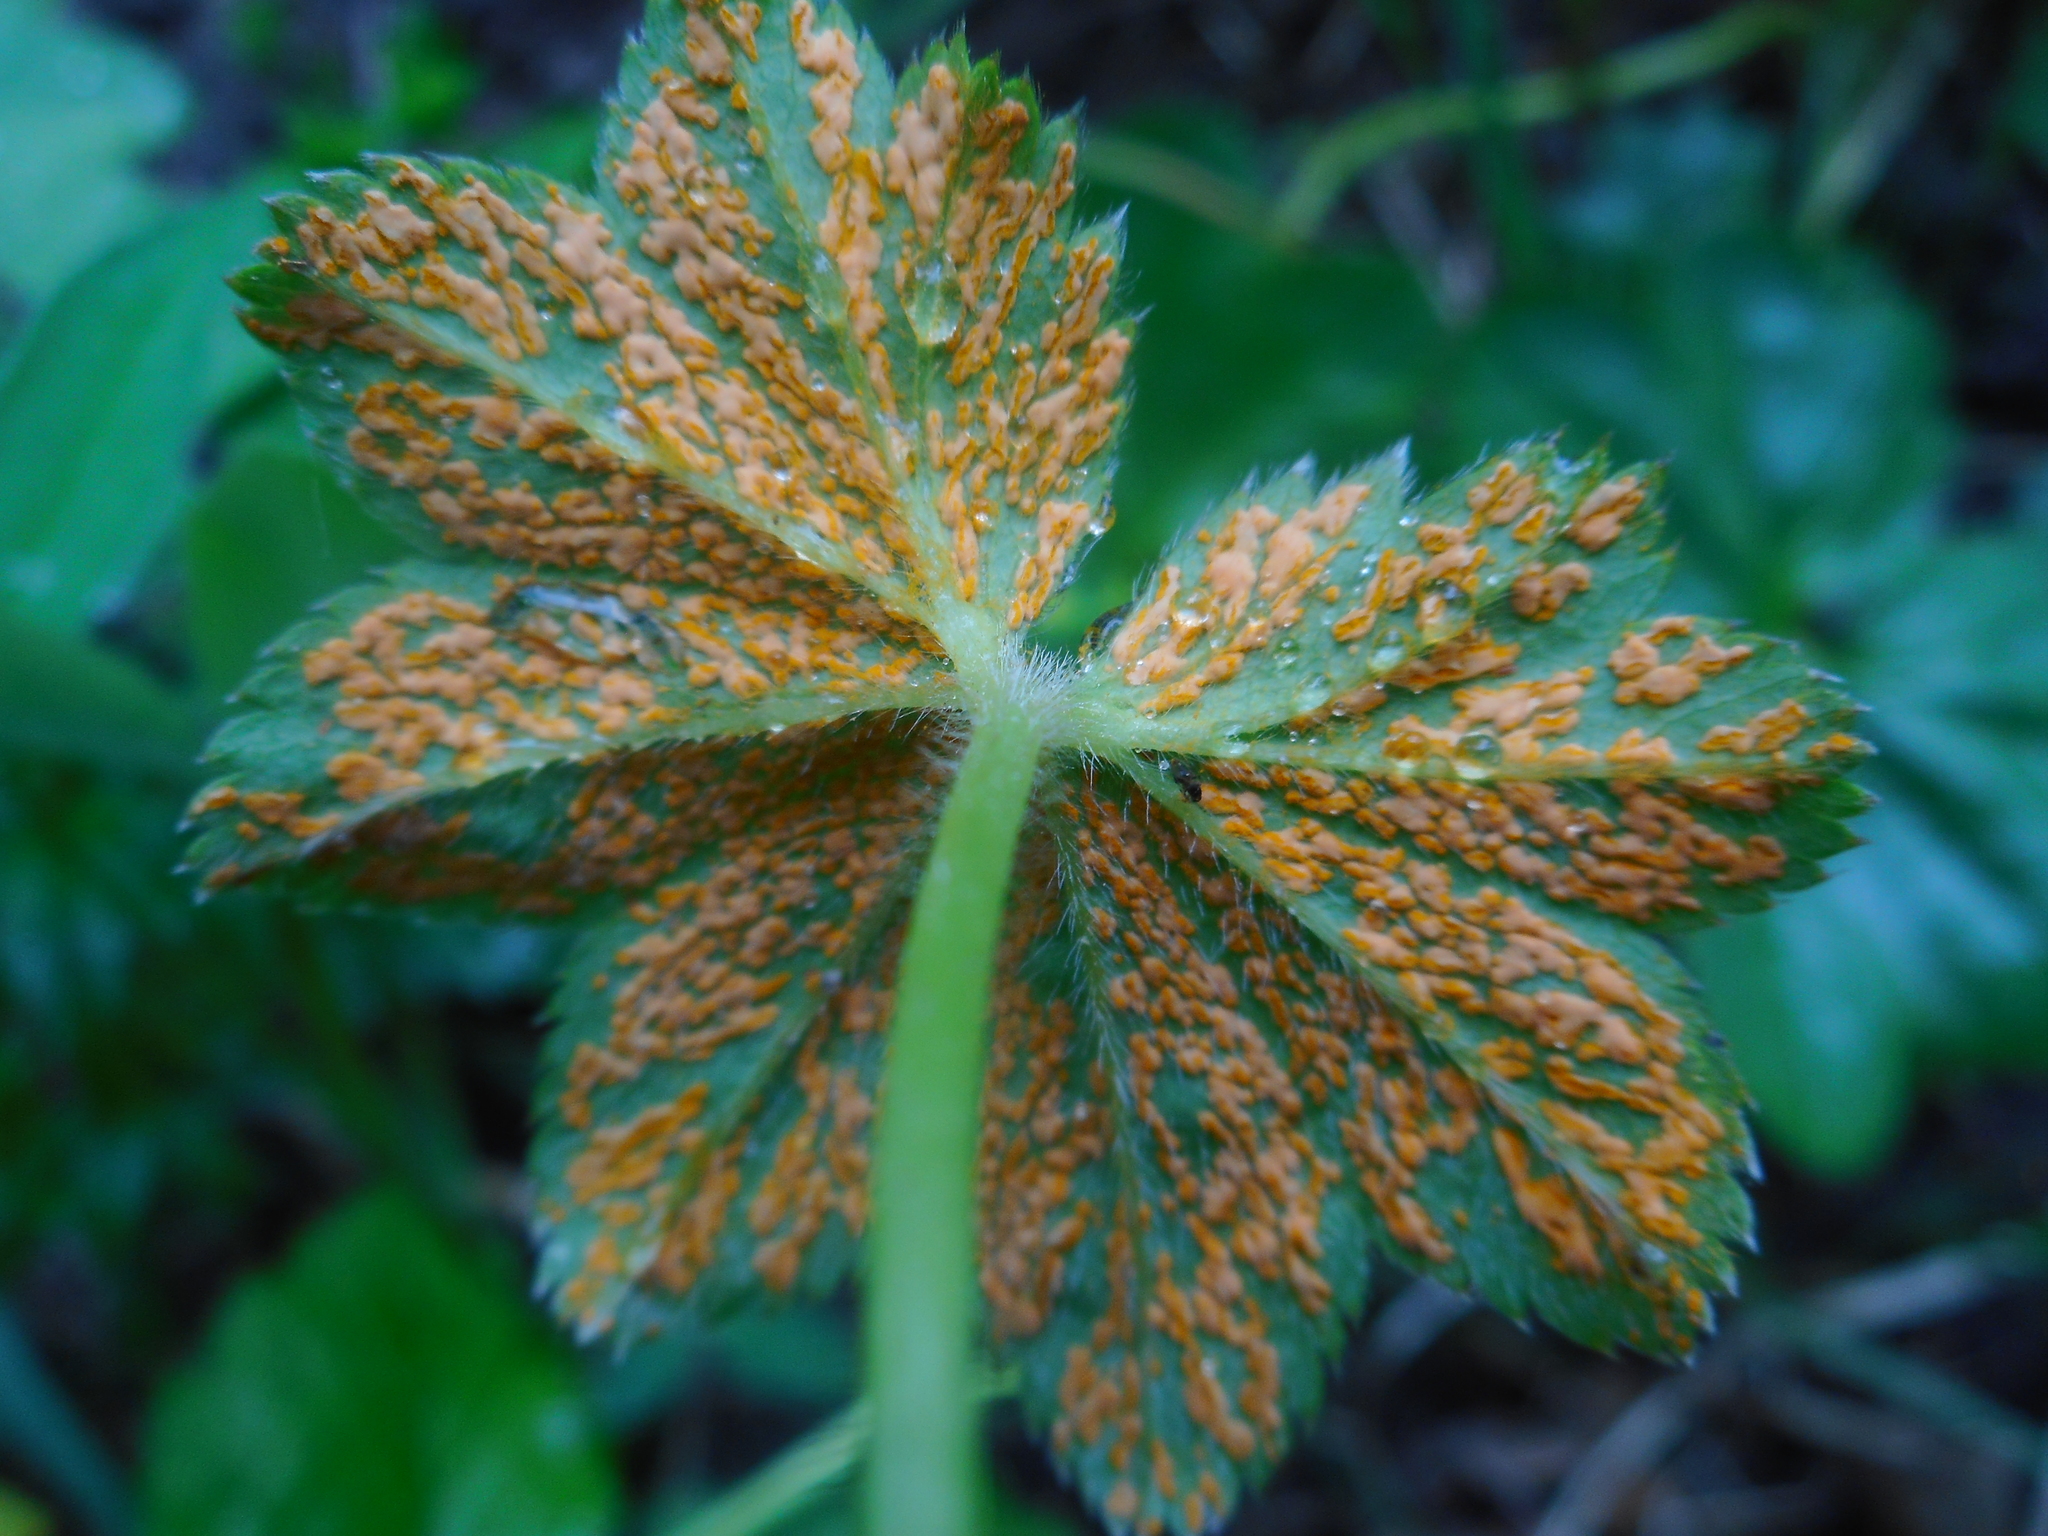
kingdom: Fungi
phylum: Basidiomycota
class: Pucciniomycetes
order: Pucciniales
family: Phragmidiaceae
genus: Trachyspora
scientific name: Trachyspora alchemillae
